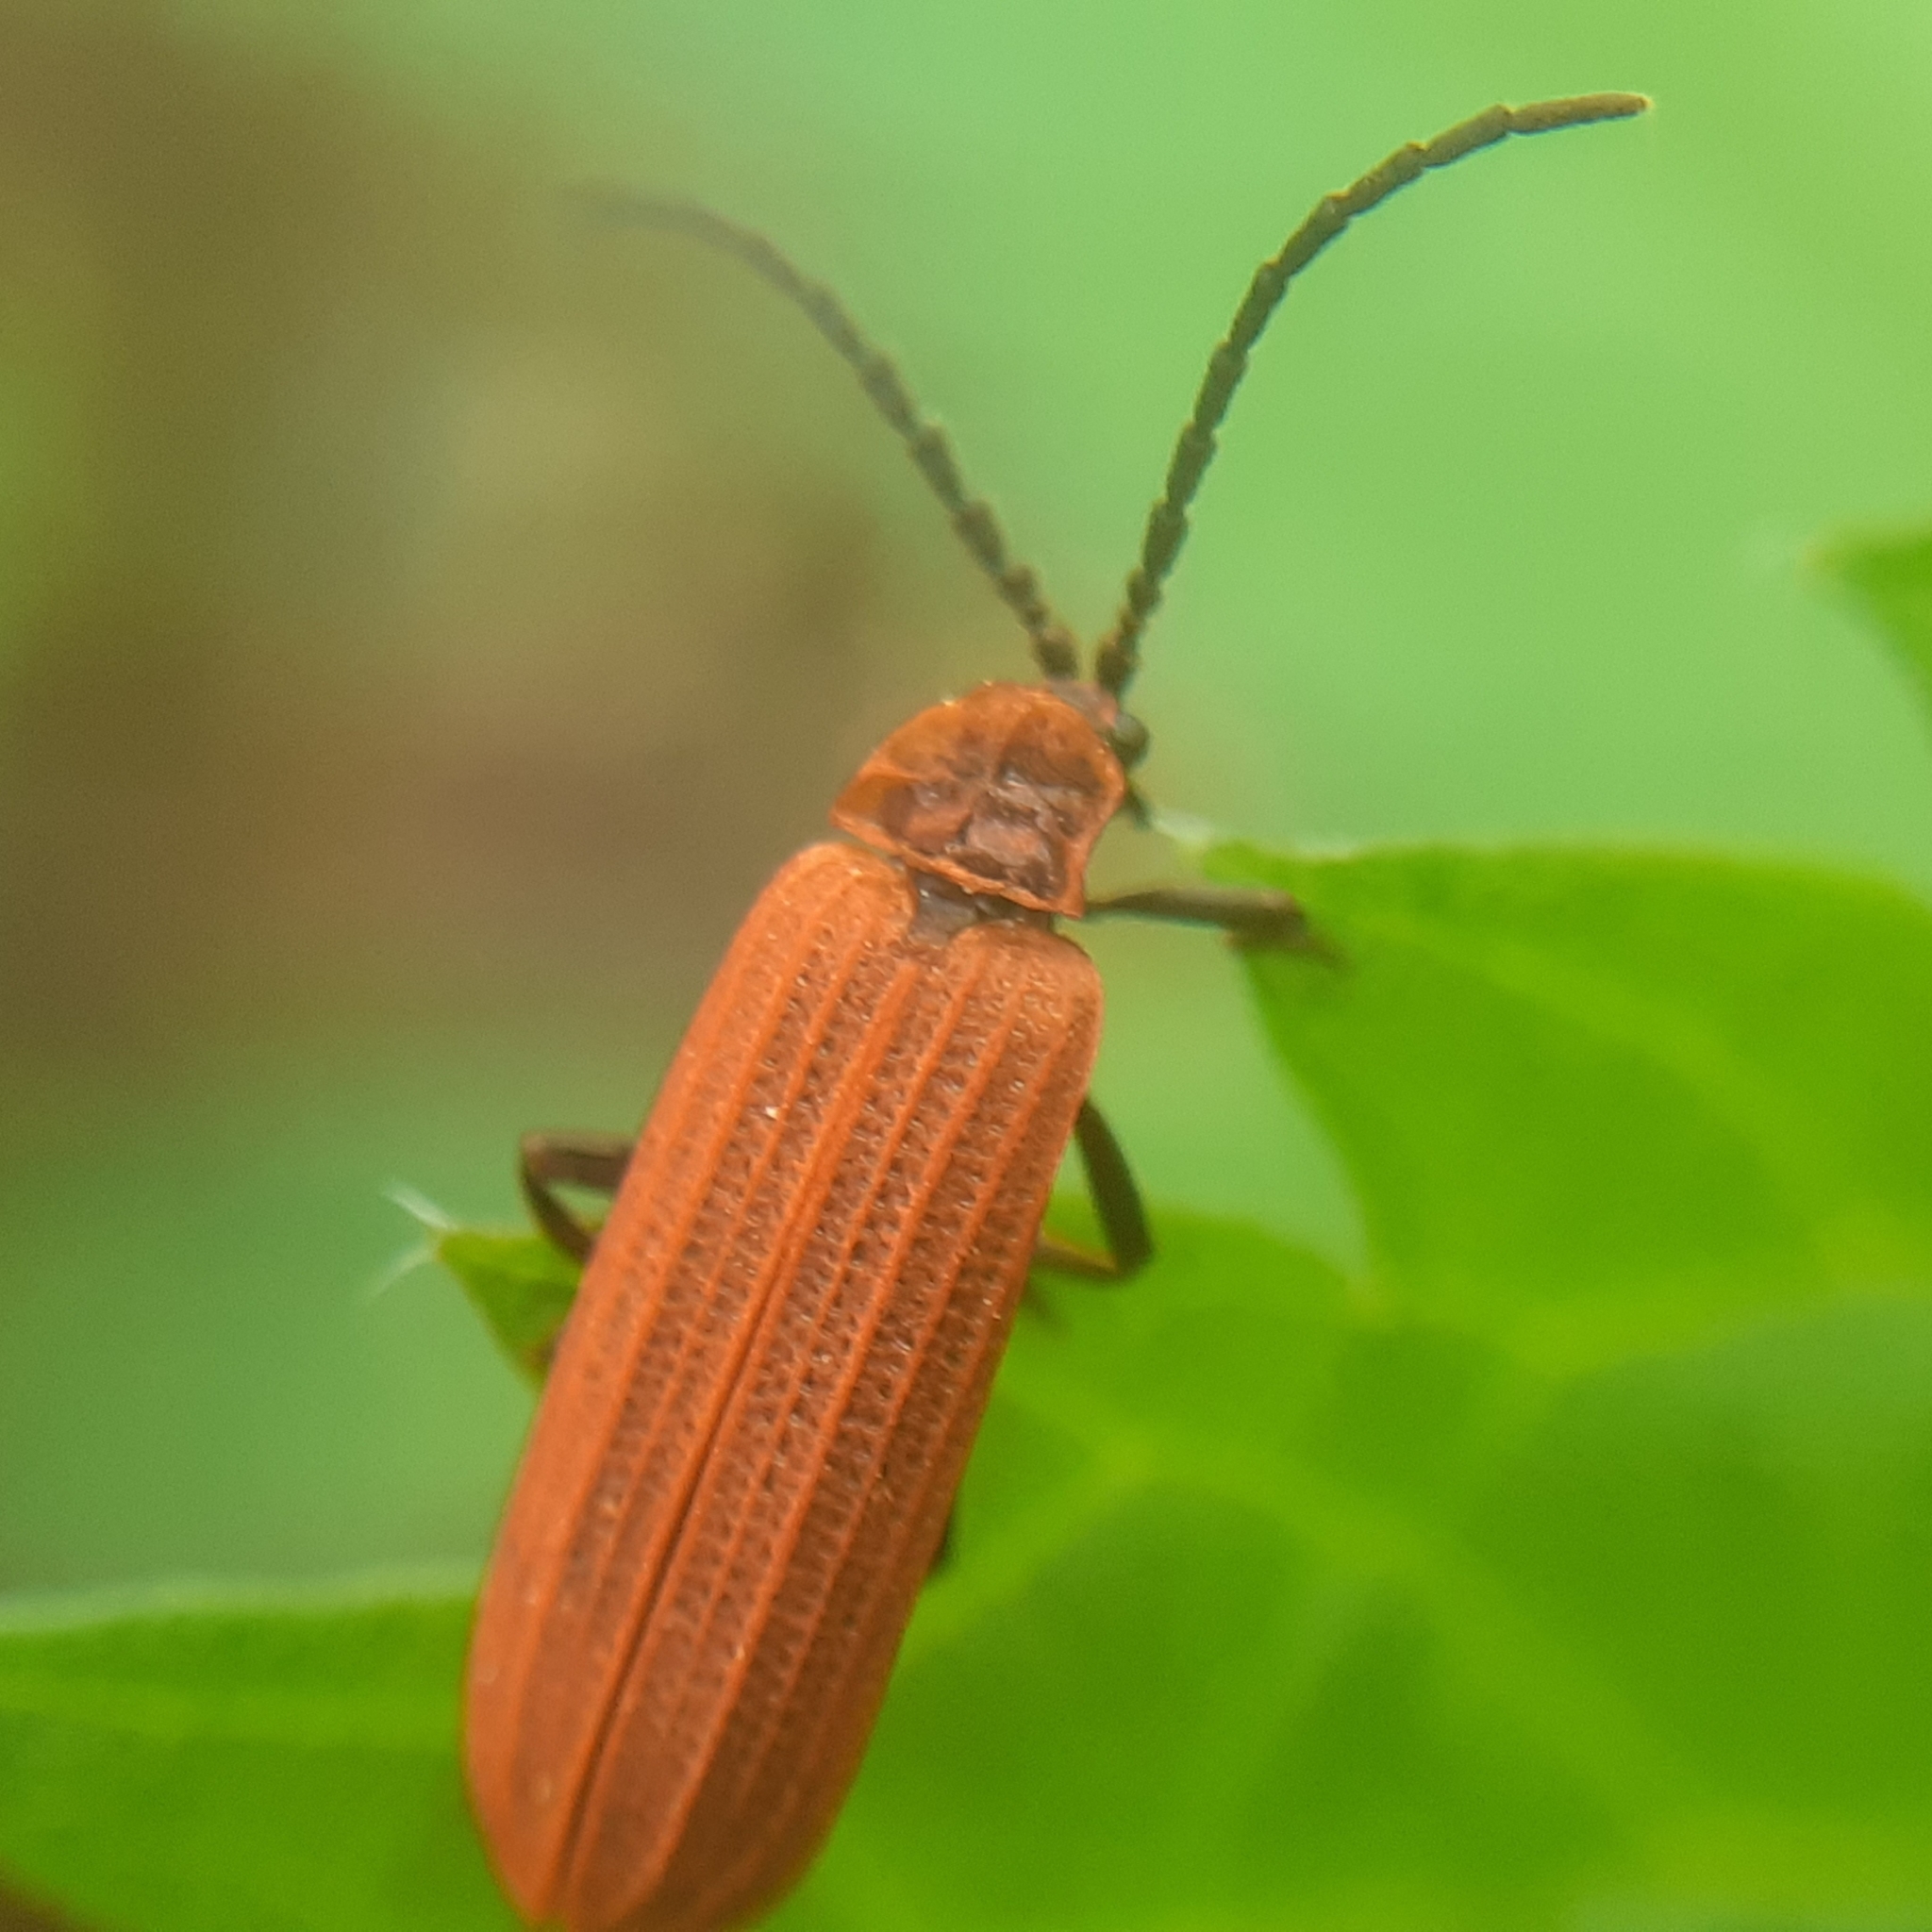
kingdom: Animalia
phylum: Arthropoda
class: Insecta
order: Coleoptera
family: Lycidae
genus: Lopheros
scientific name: Lopheros rubens
